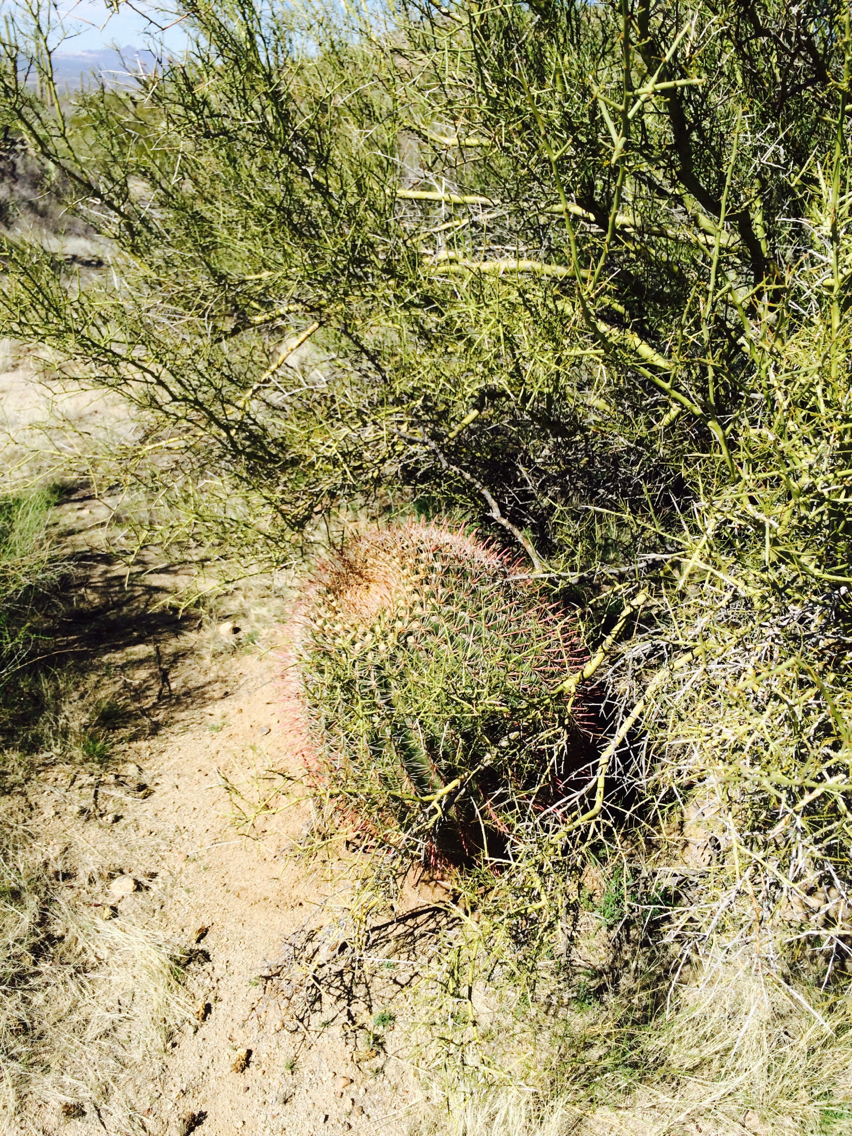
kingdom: Plantae
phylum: Tracheophyta
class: Magnoliopsida
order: Caryophyllales
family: Cactaceae
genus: Ferocactus
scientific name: Ferocactus wislizeni
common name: Candy barrel cactus
